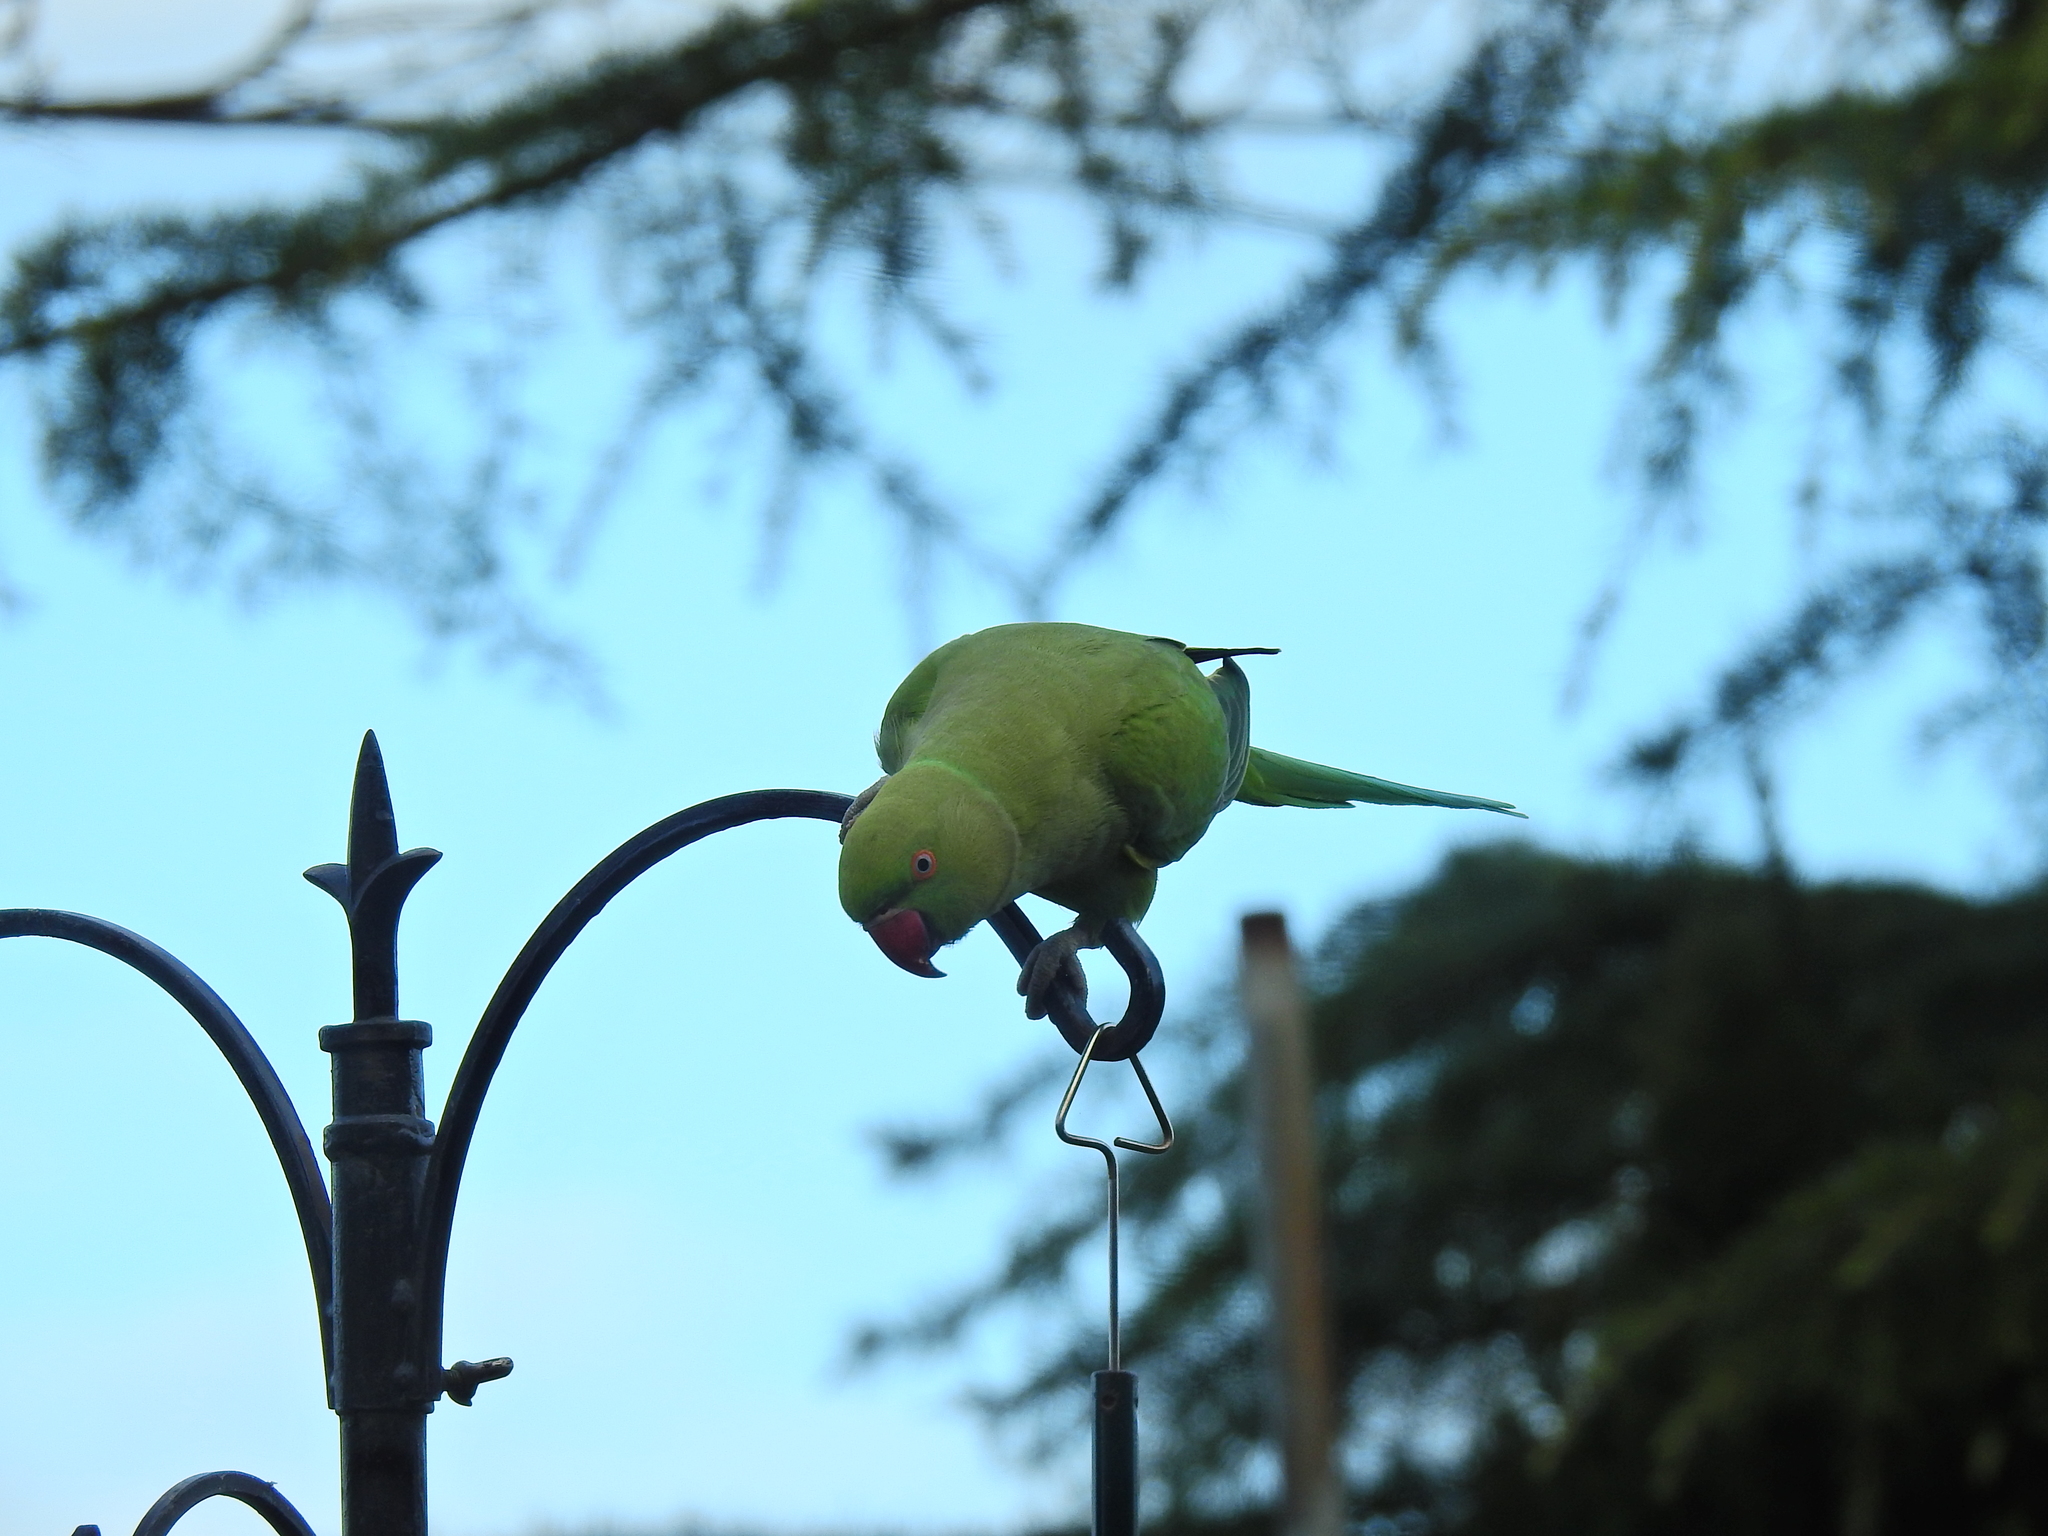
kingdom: Animalia
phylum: Chordata
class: Aves
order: Psittaciformes
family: Psittacidae
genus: Psittacula
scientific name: Psittacula krameri
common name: Rose-ringed parakeet
